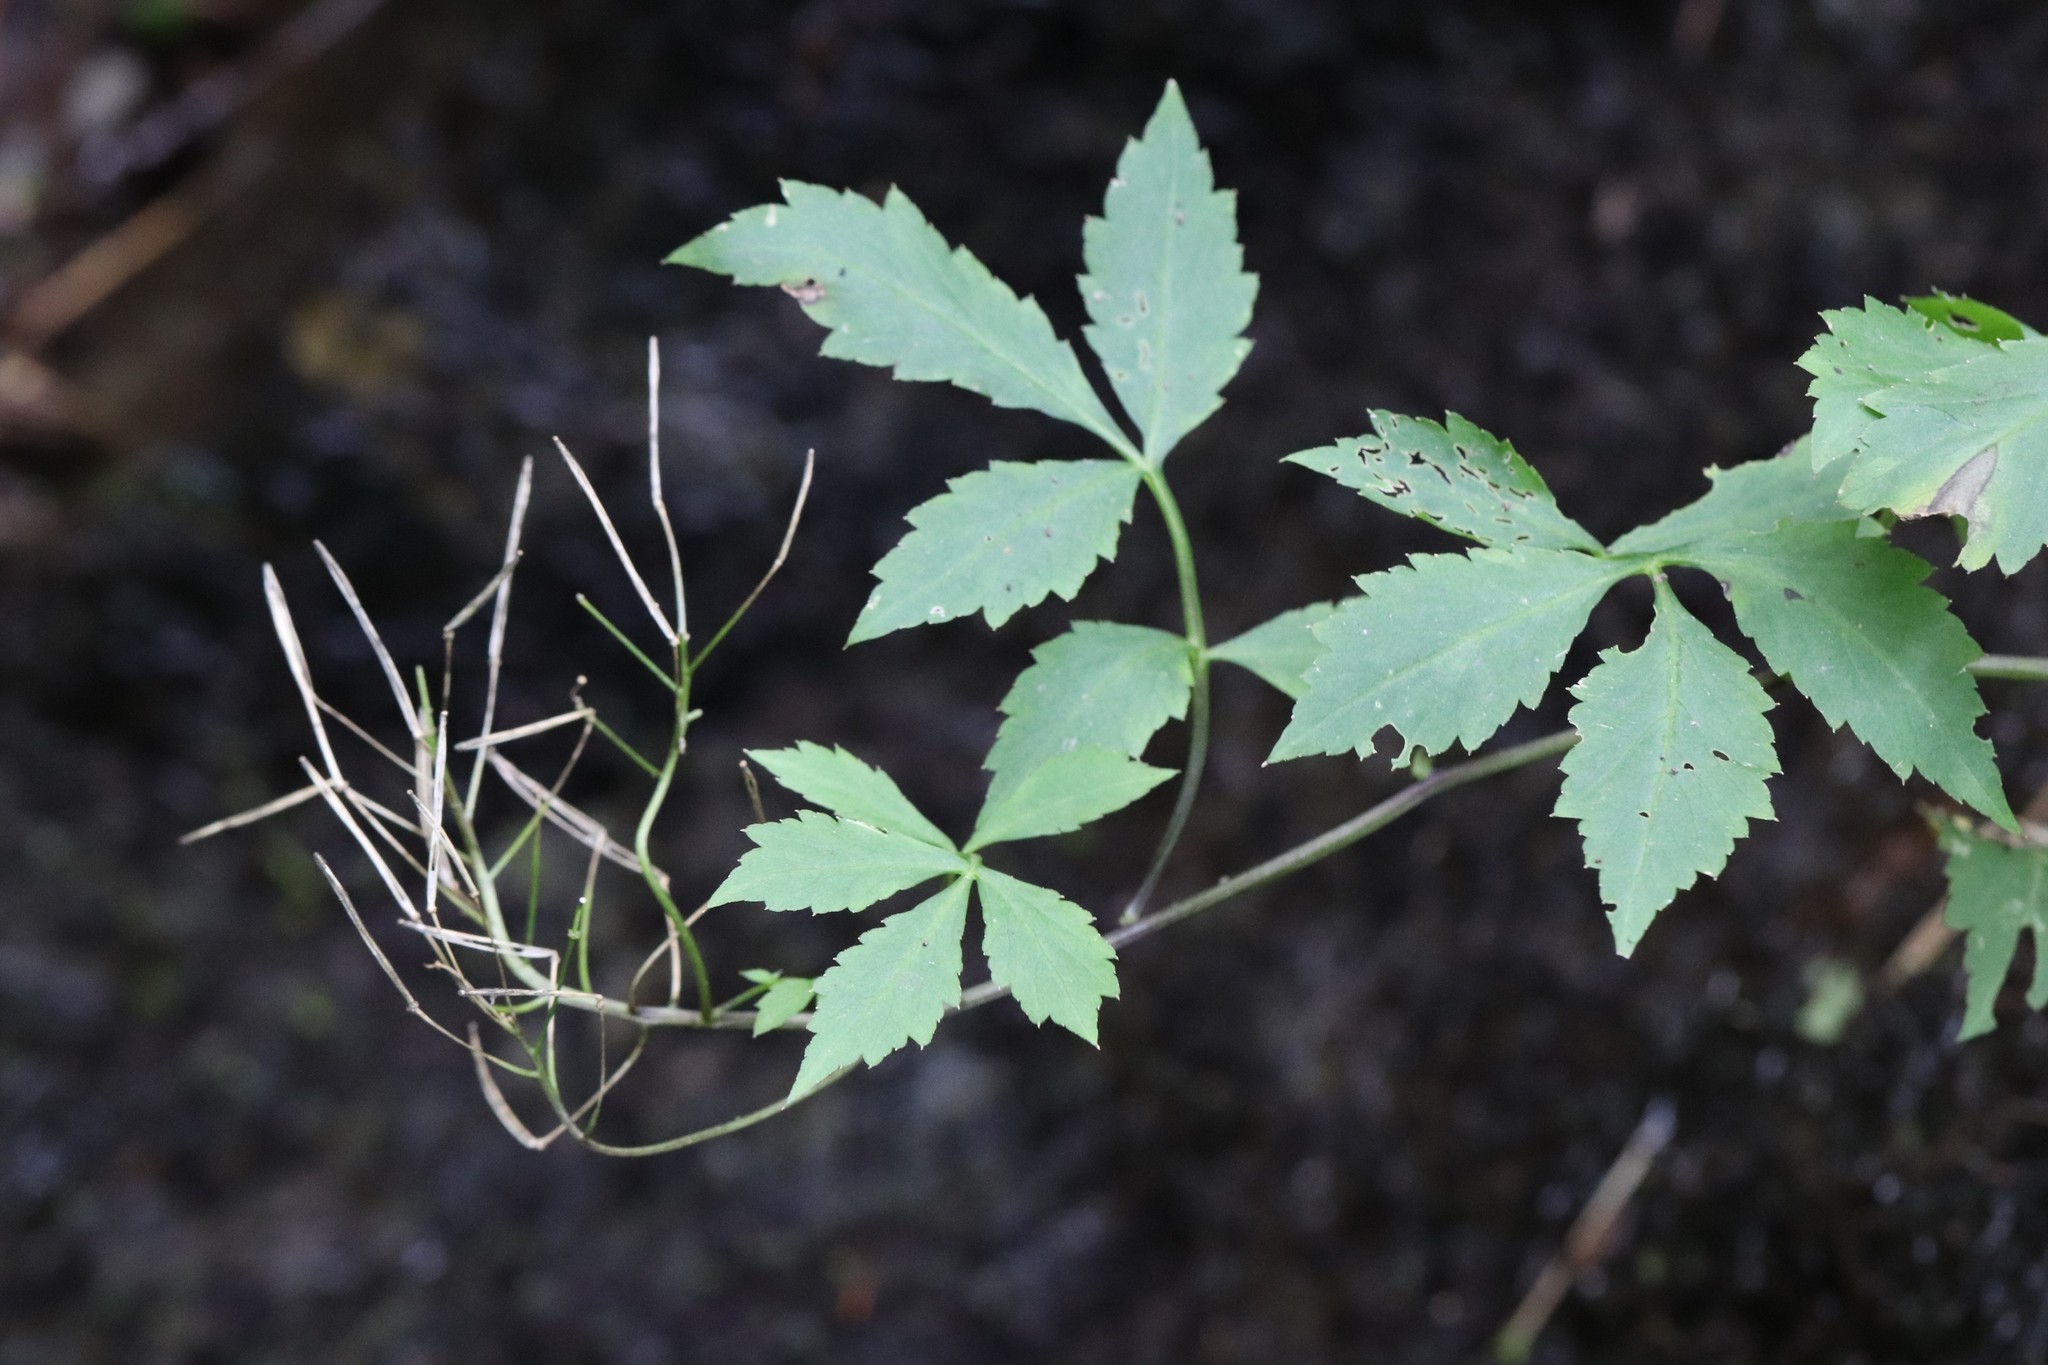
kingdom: Plantae
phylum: Tracheophyta
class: Magnoliopsida
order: Brassicales
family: Brassicaceae
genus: Cardamine
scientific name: Cardamine macrophylla
